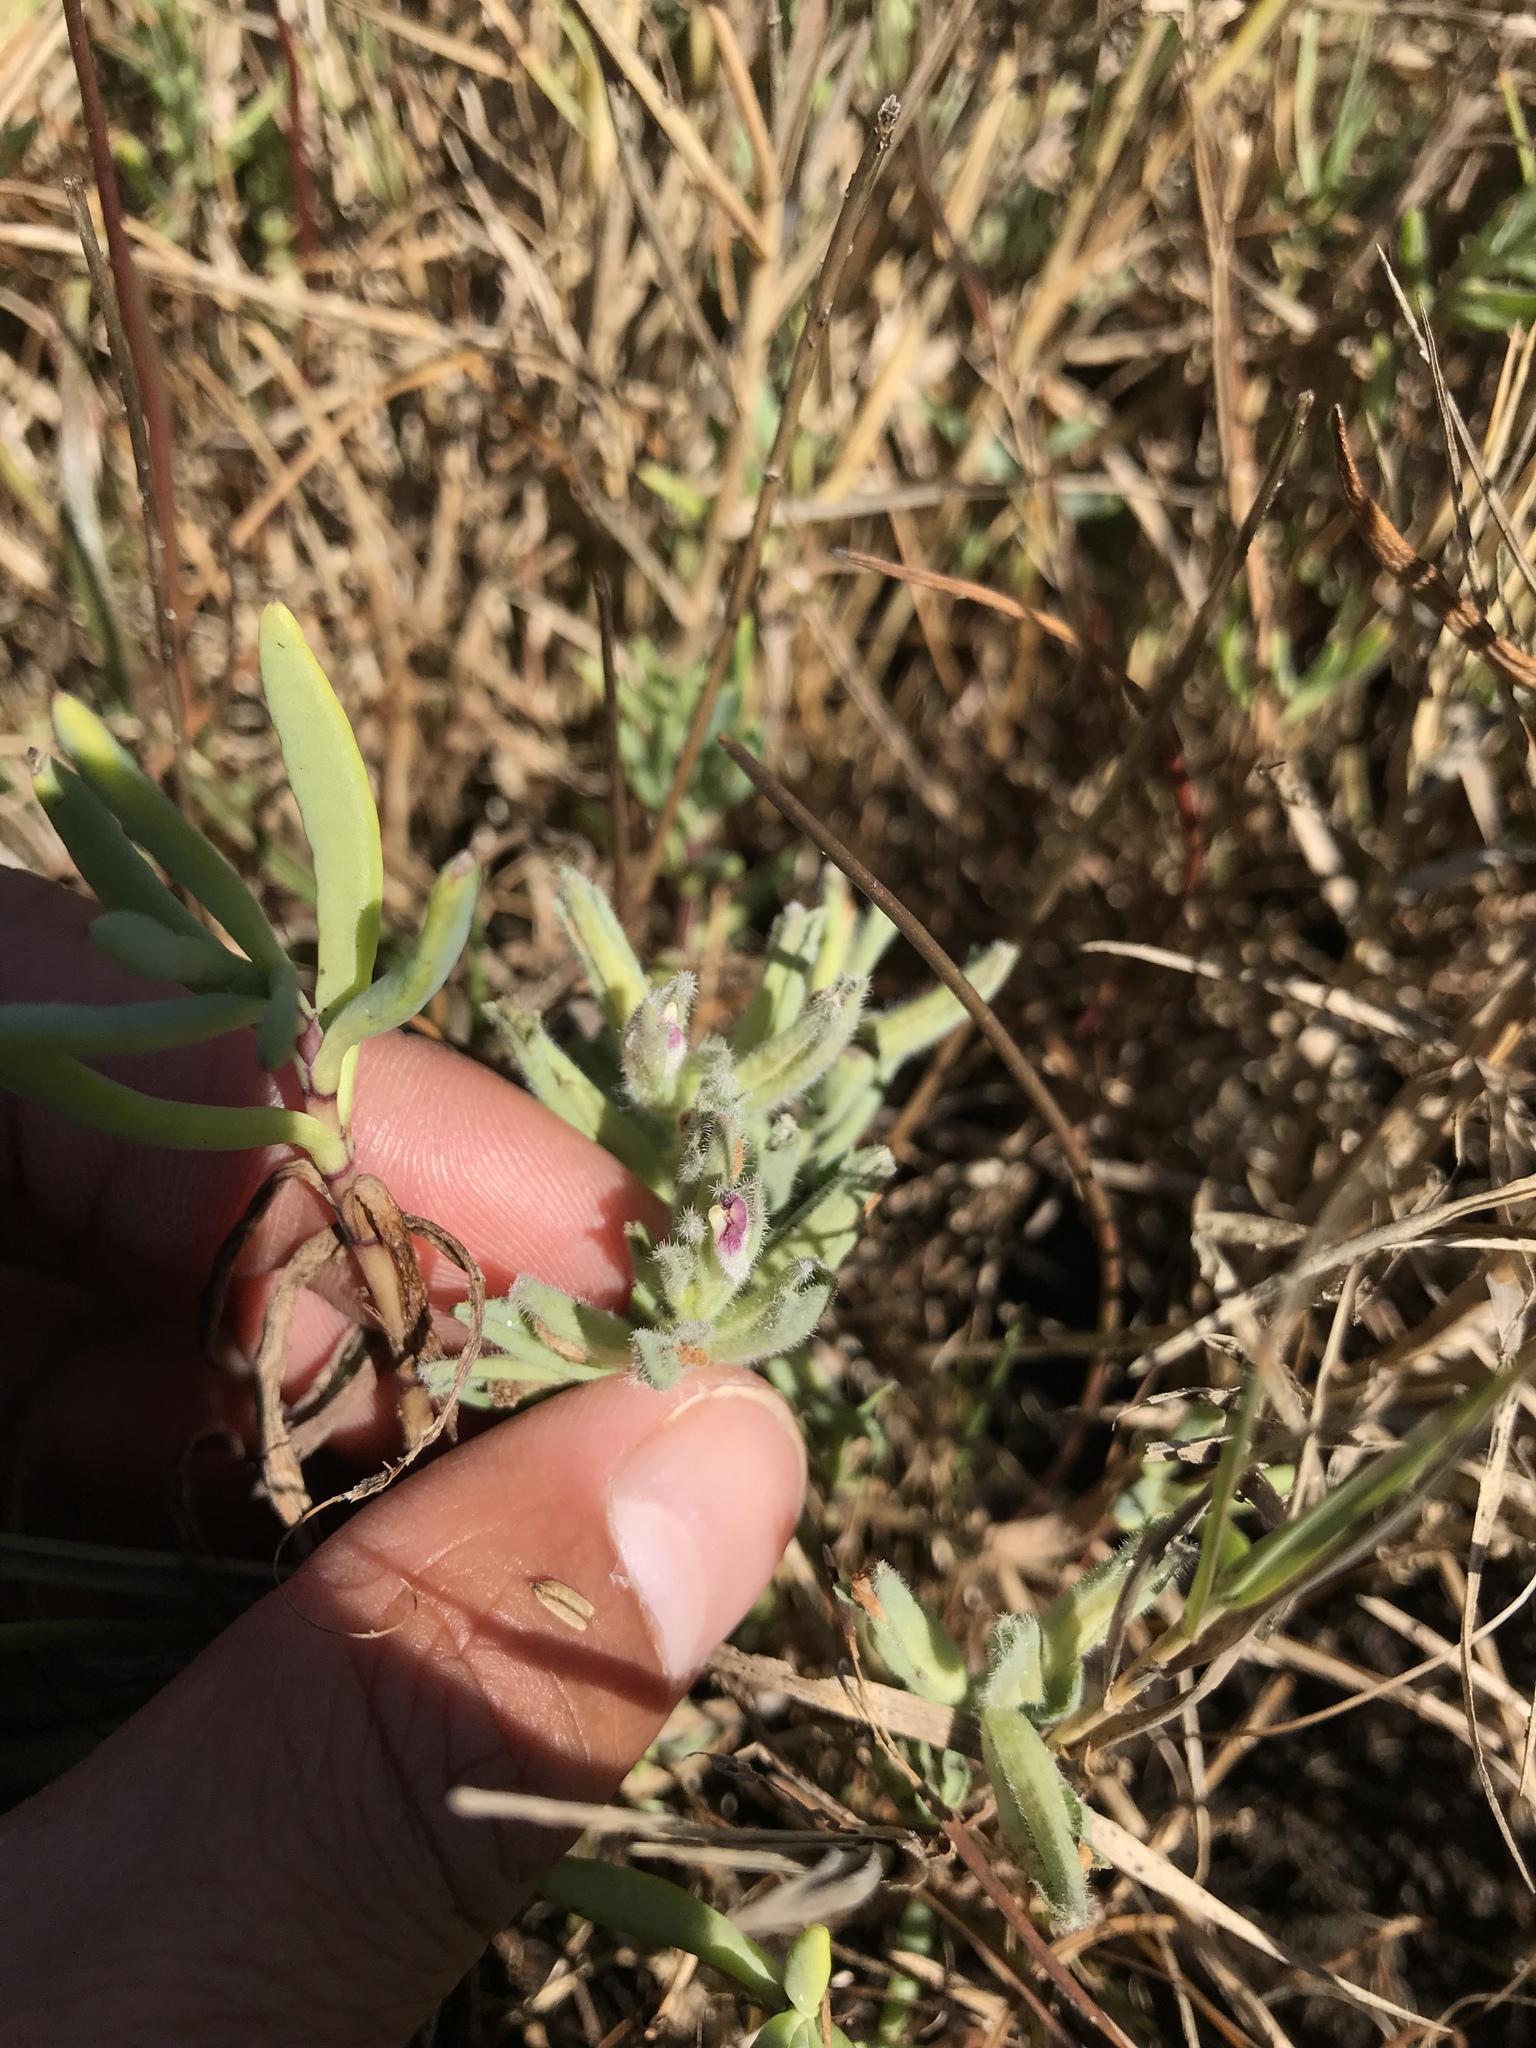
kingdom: Plantae
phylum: Tracheophyta
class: Magnoliopsida
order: Lamiales
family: Orobanchaceae
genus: Chloropyron
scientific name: Chloropyron maritimum
